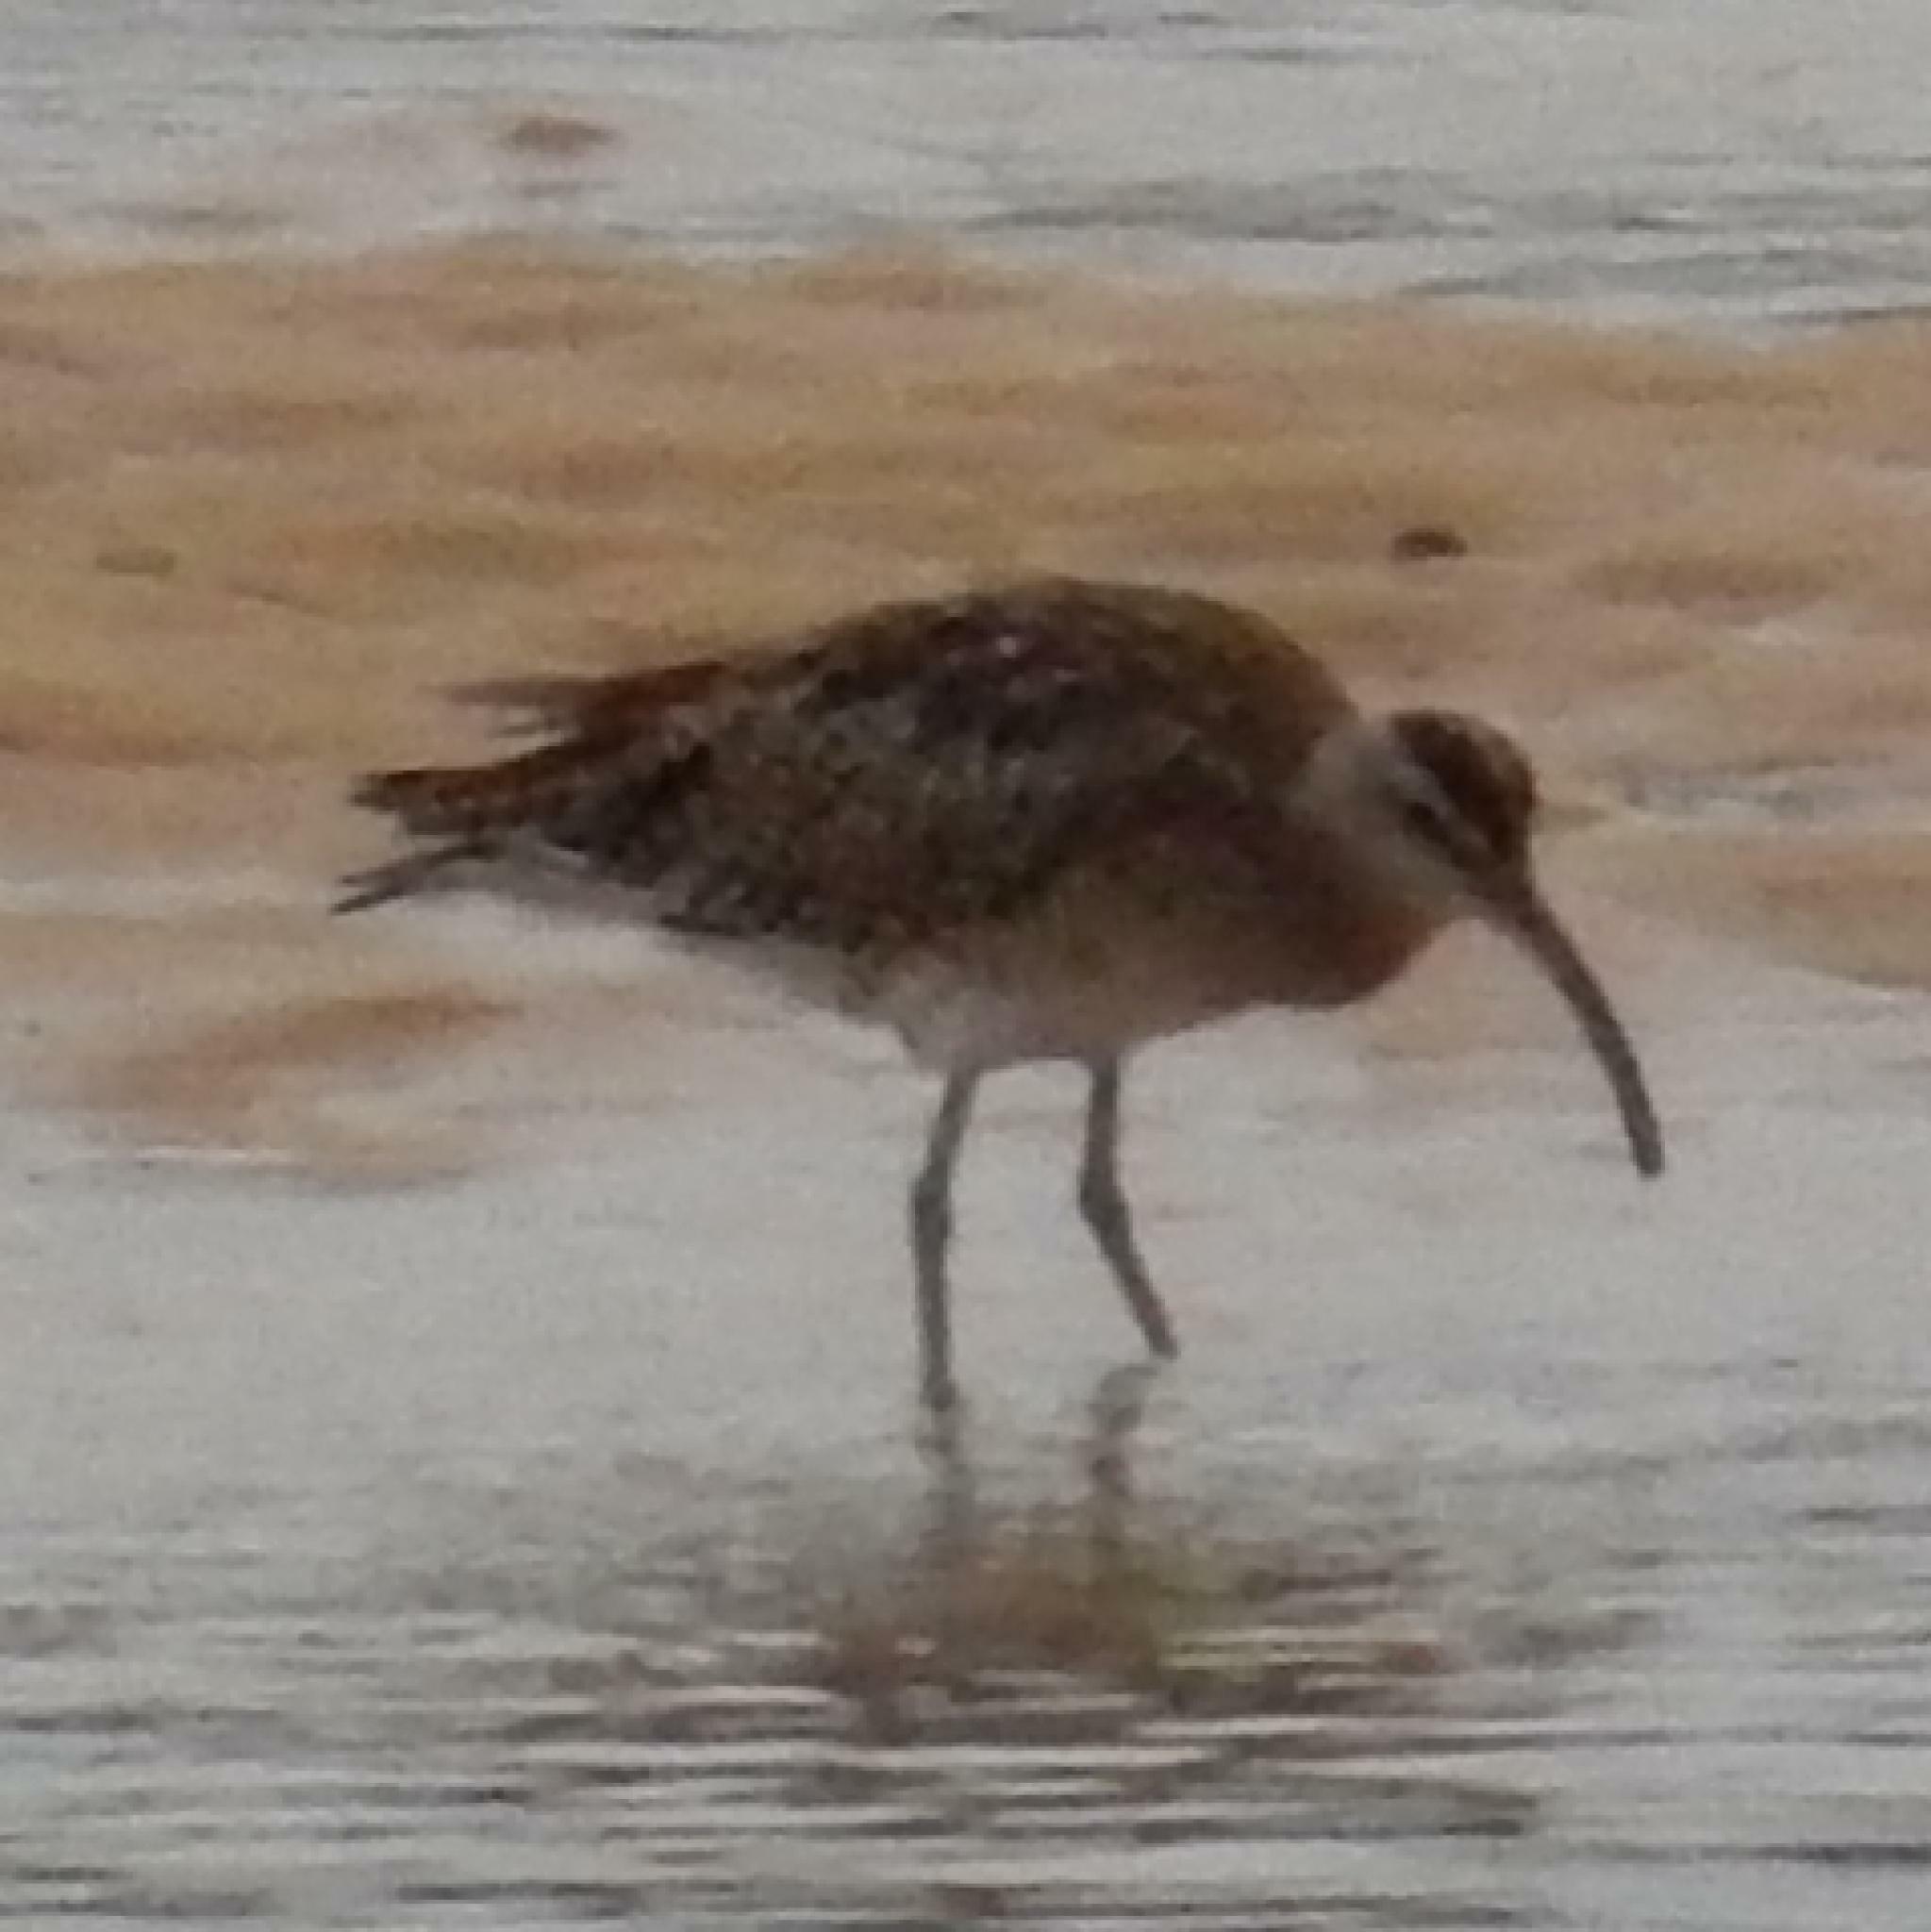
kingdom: Animalia
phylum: Chordata
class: Aves
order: Charadriiformes
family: Scolopacidae
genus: Numenius
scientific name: Numenius phaeopus
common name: Whimbrel
